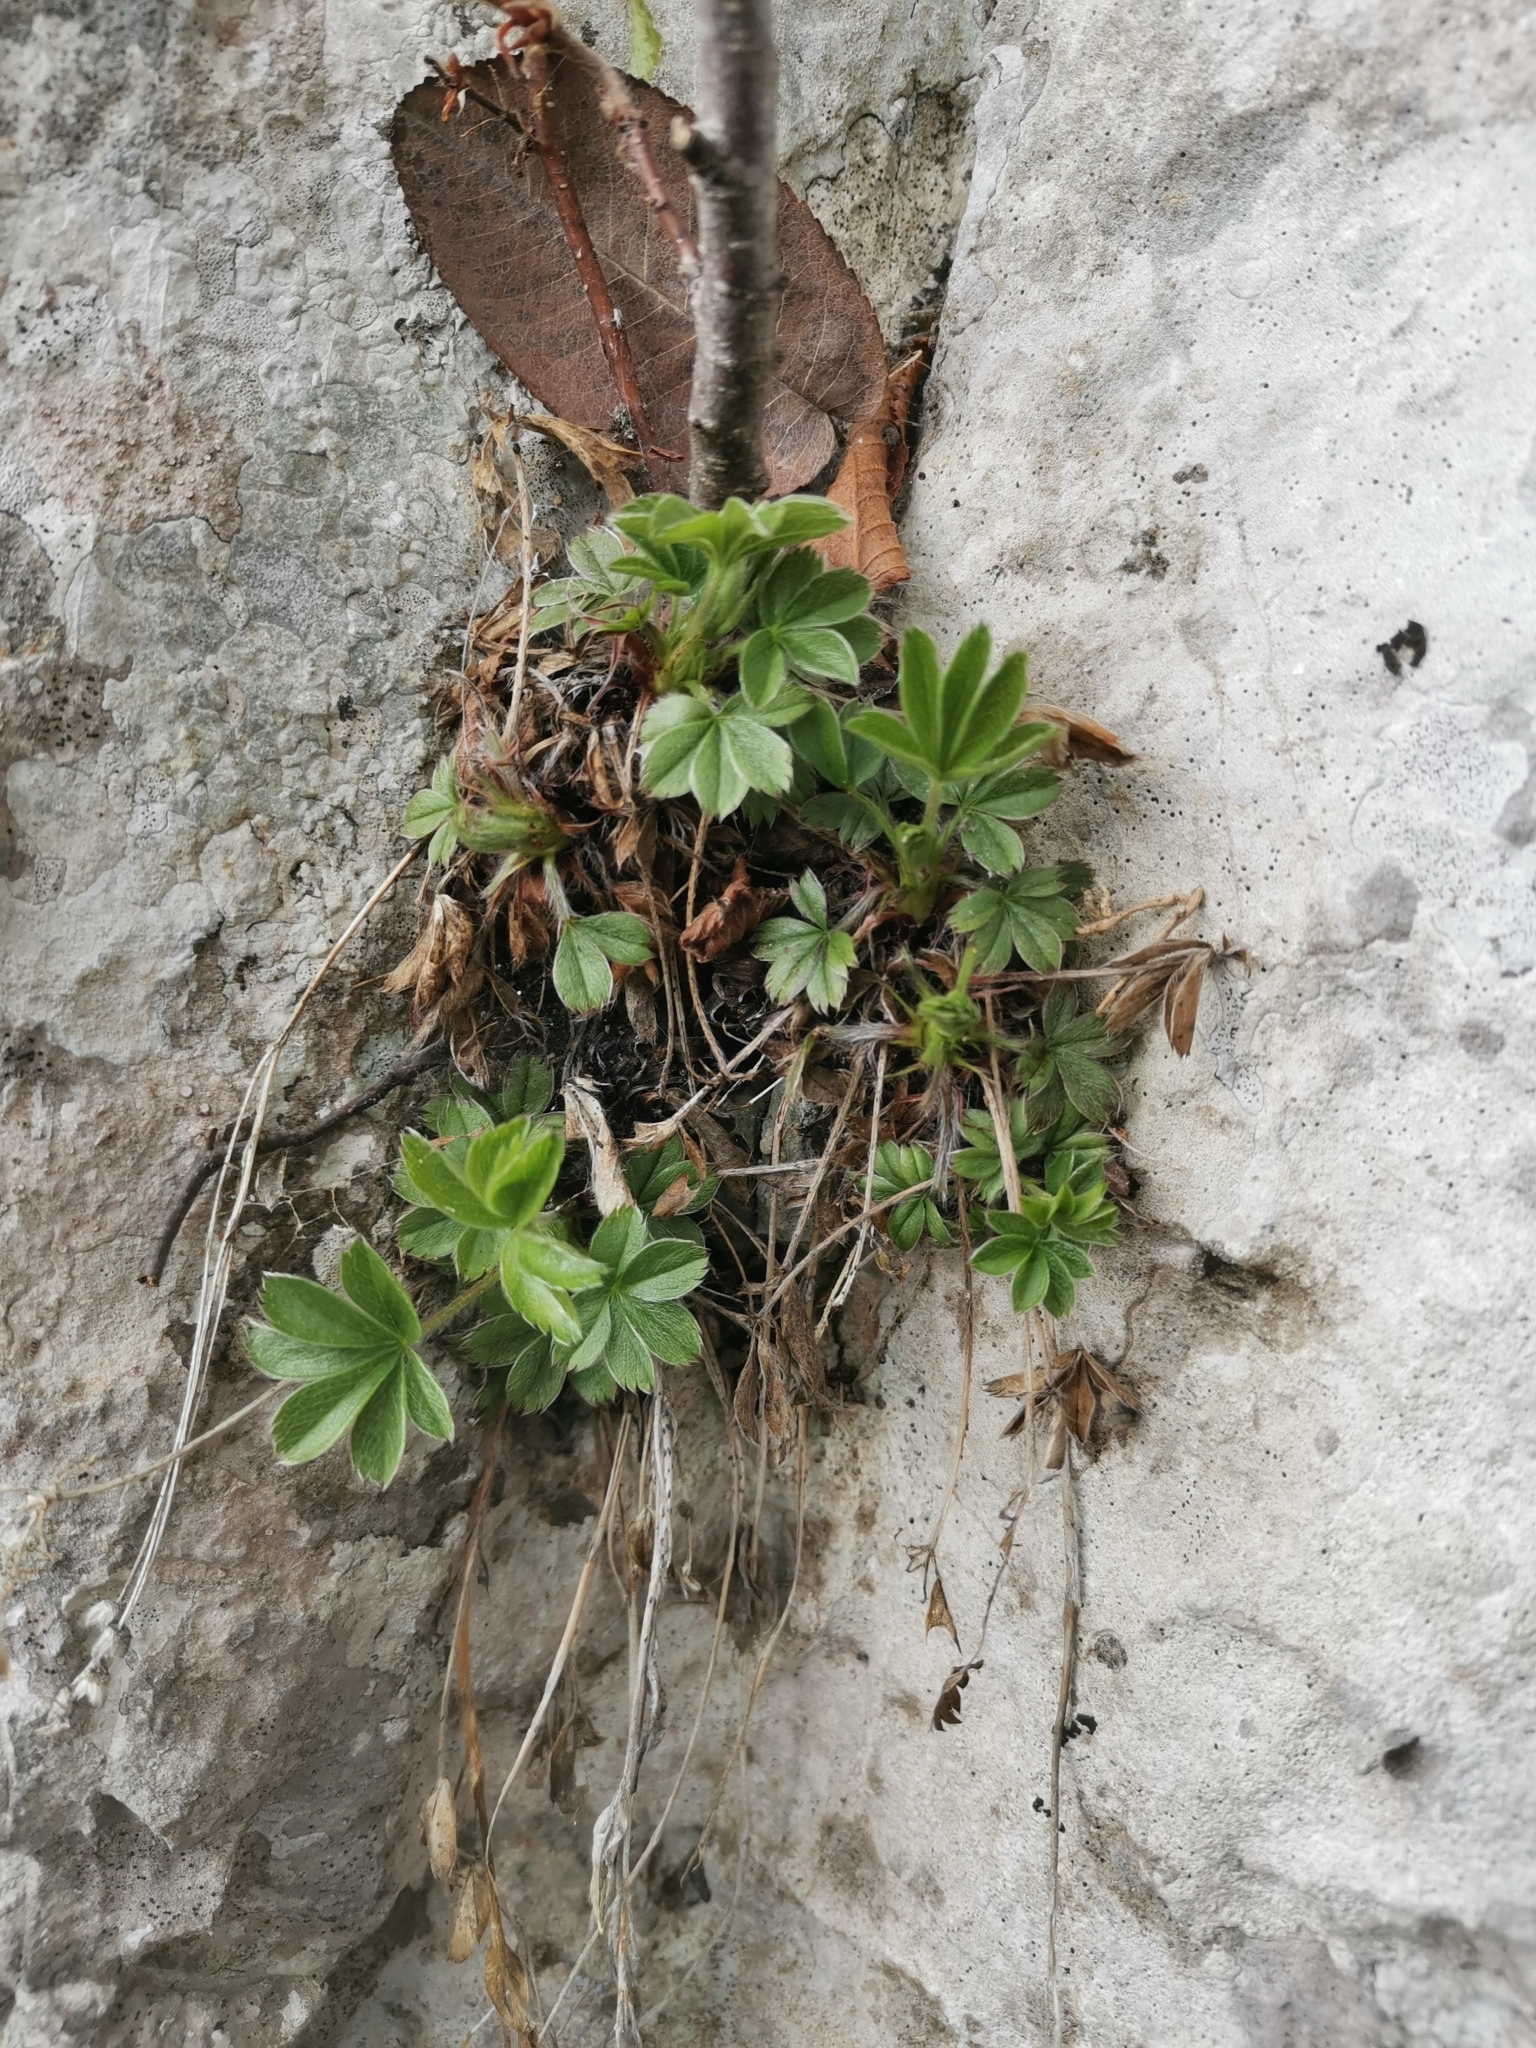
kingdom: Plantae
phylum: Tracheophyta
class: Magnoliopsida
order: Rosales
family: Rosaceae
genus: Potentilla
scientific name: Potentilla caulescens
